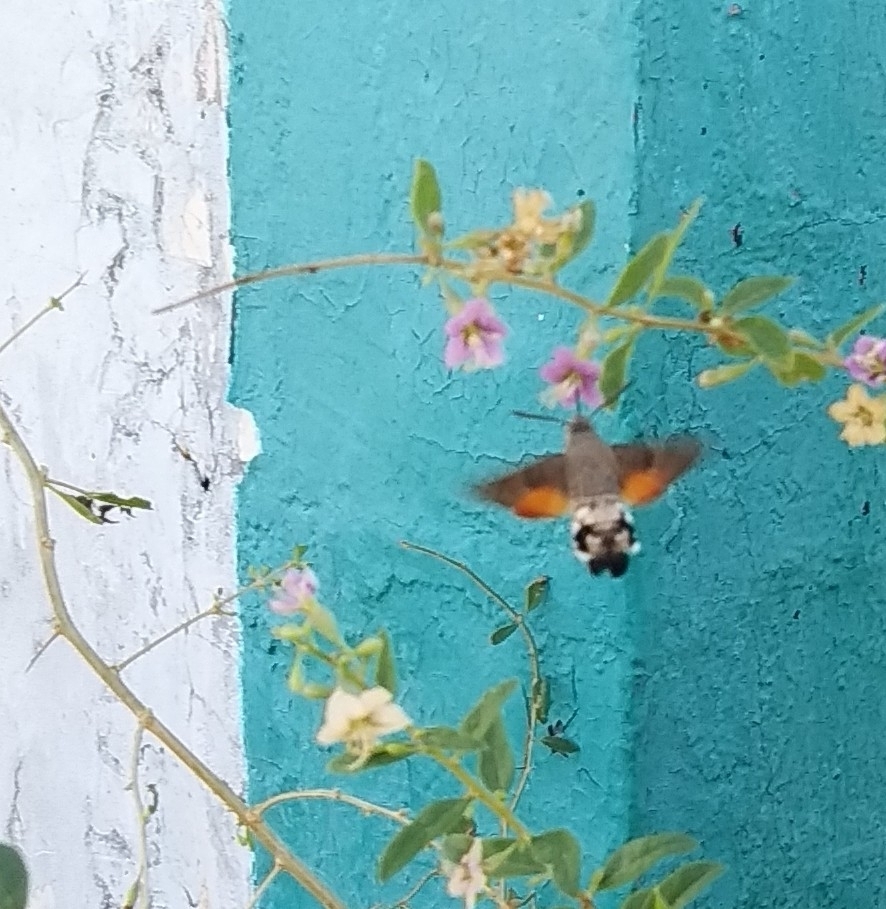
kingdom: Animalia
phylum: Arthropoda
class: Insecta
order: Lepidoptera
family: Sphingidae
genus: Macroglossum
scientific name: Macroglossum stellatarum
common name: Humming-bird hawk-moth
